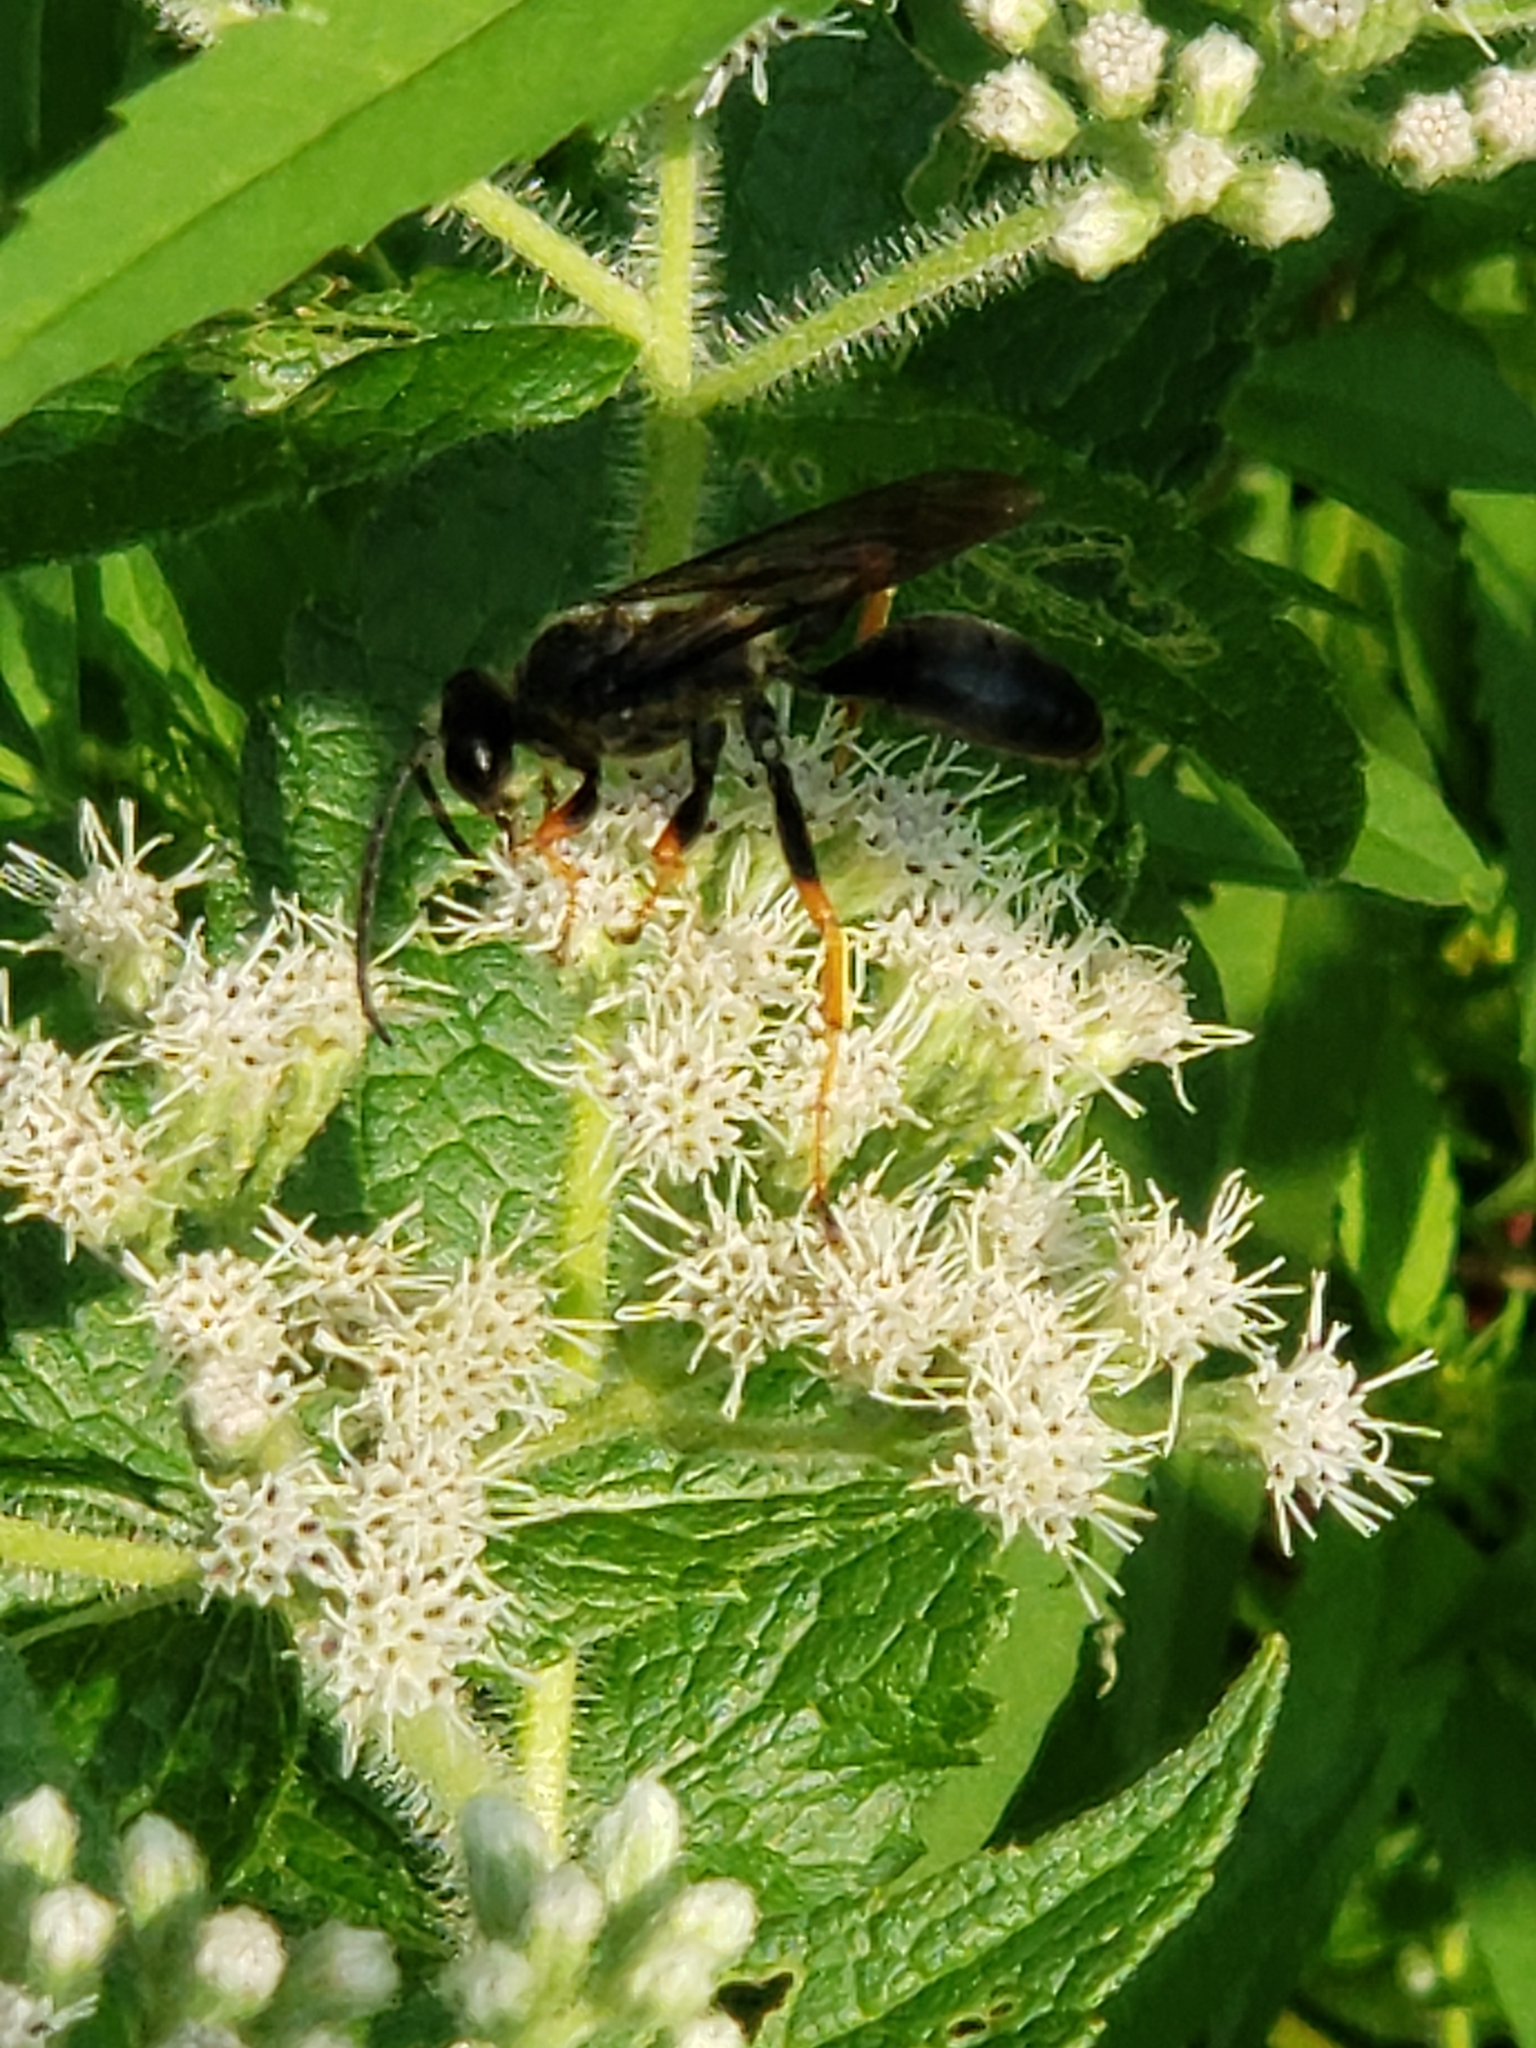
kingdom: Animalia
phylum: Arthropoda
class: Insecta
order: Hymenoptera
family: Sphecidae
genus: Sphex
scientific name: Sphex nudus
